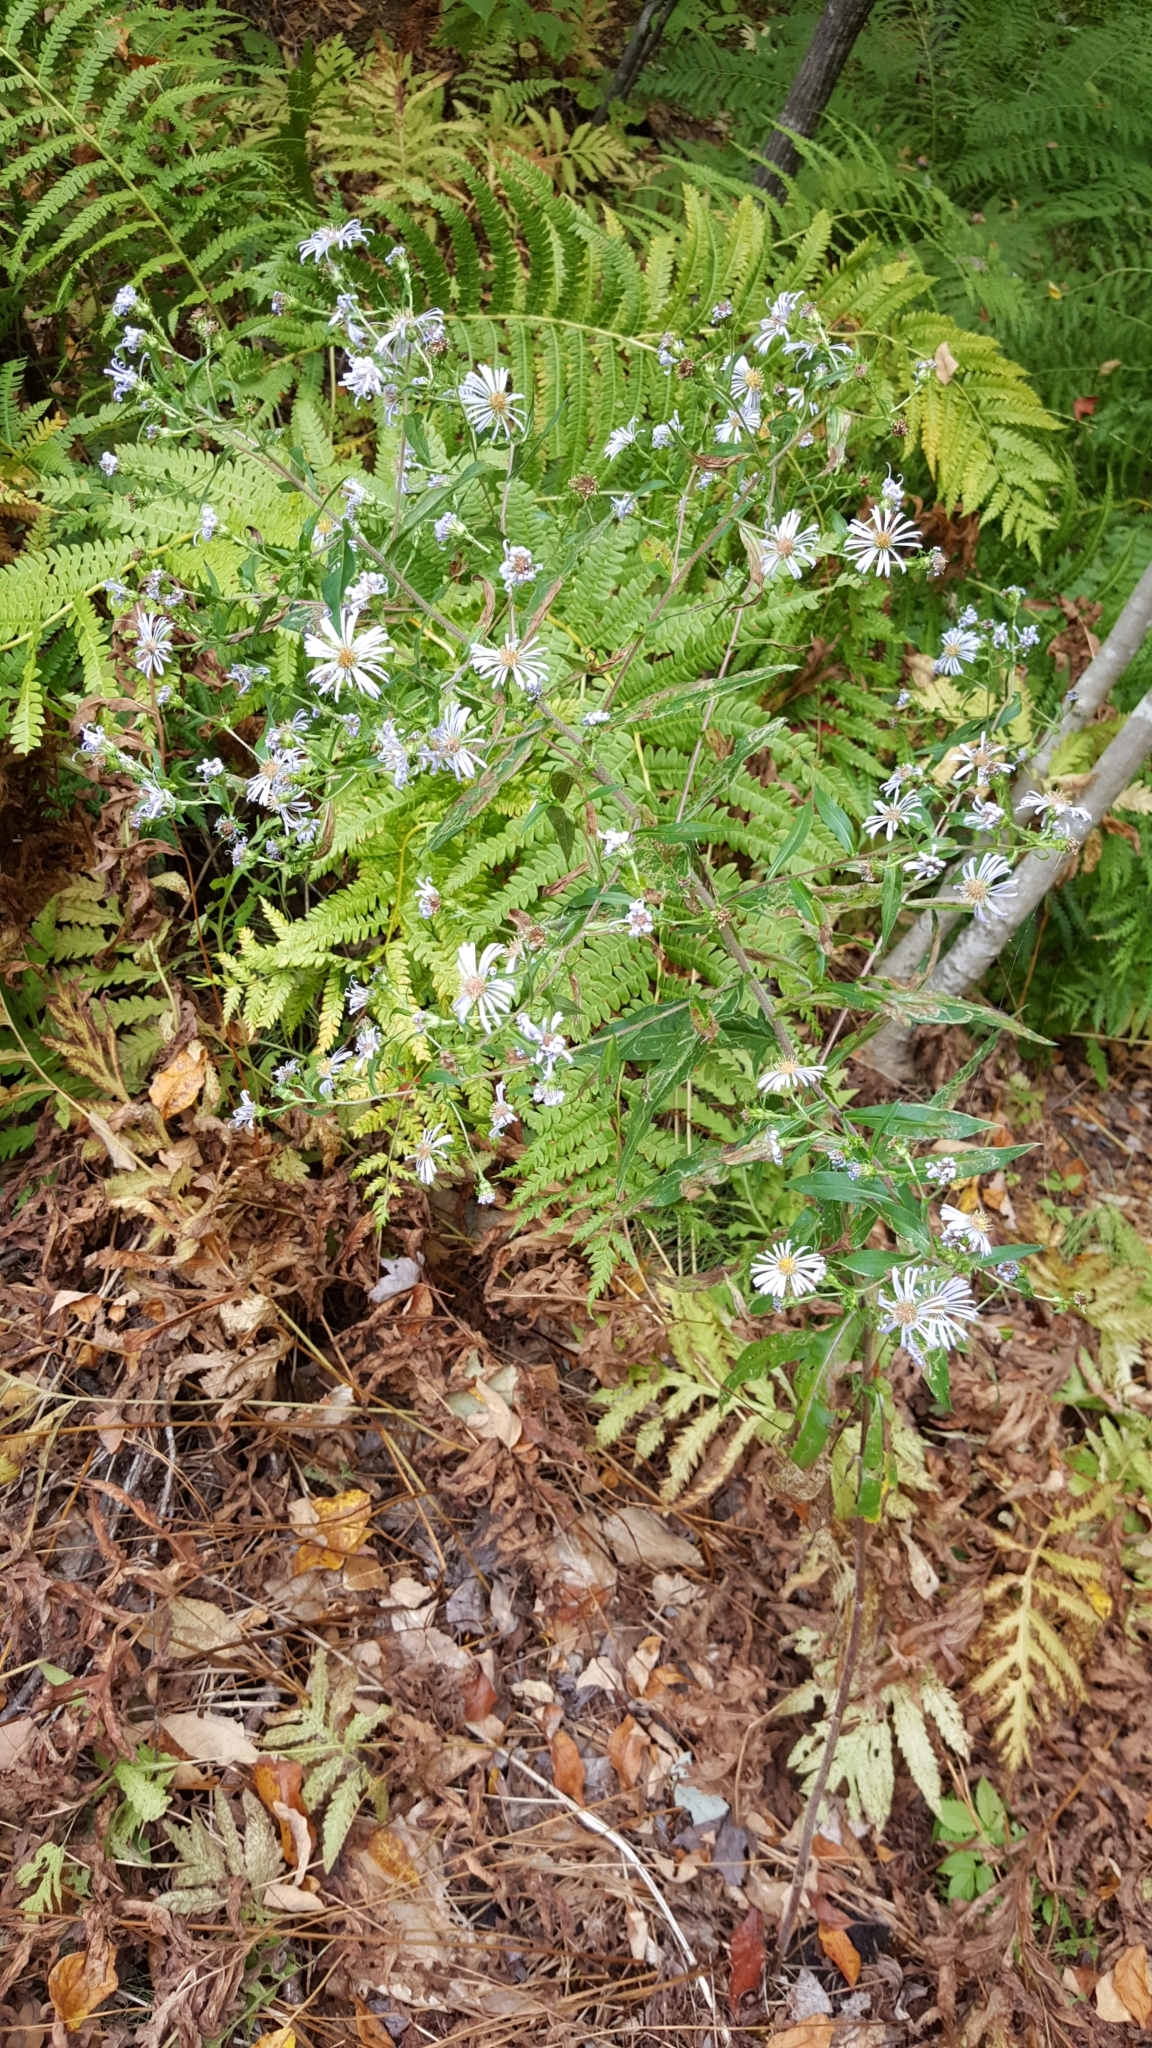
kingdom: Plantae
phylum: Tracheophyta
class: Magnoliopsida
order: Asterales
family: Asteraceae
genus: Symphyotrichum
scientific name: Symphyotrichum puniceum
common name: Bog aster
